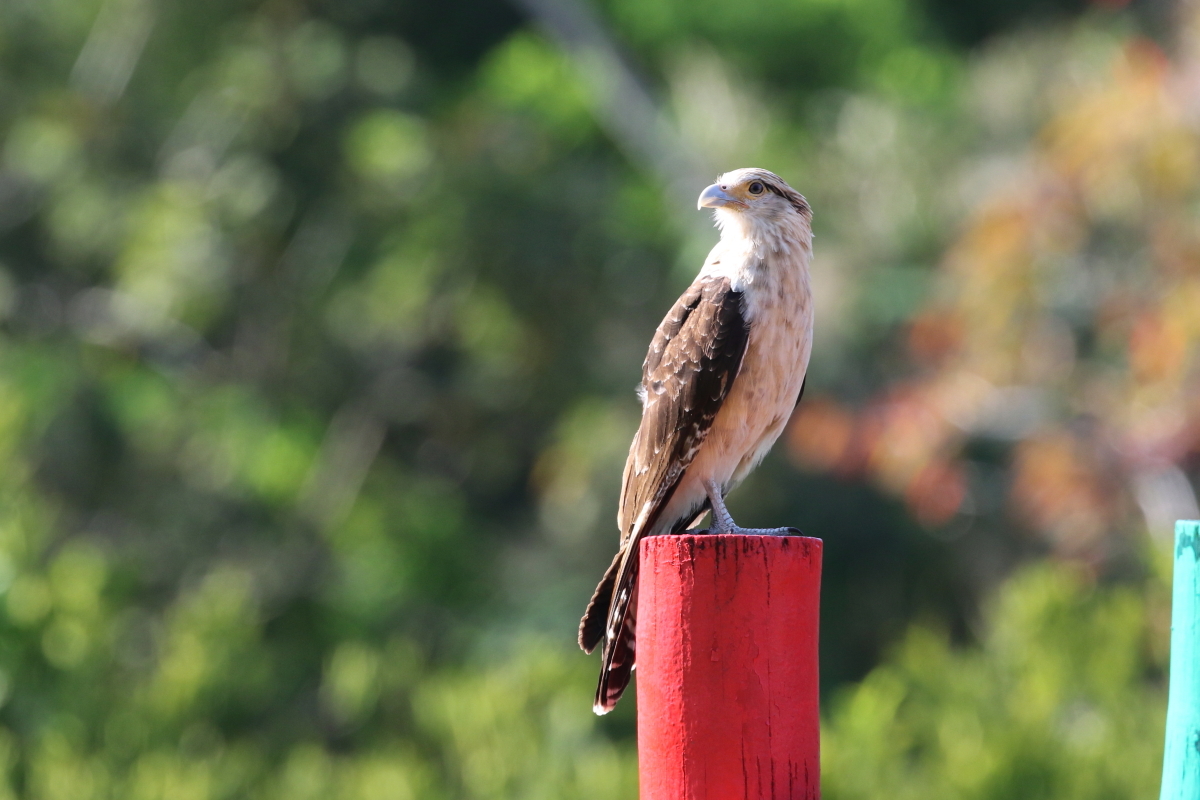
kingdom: Animalia
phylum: Chordata
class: Aves
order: Falconiformes
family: Falconidae
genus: Daptrius
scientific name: Daptrius
